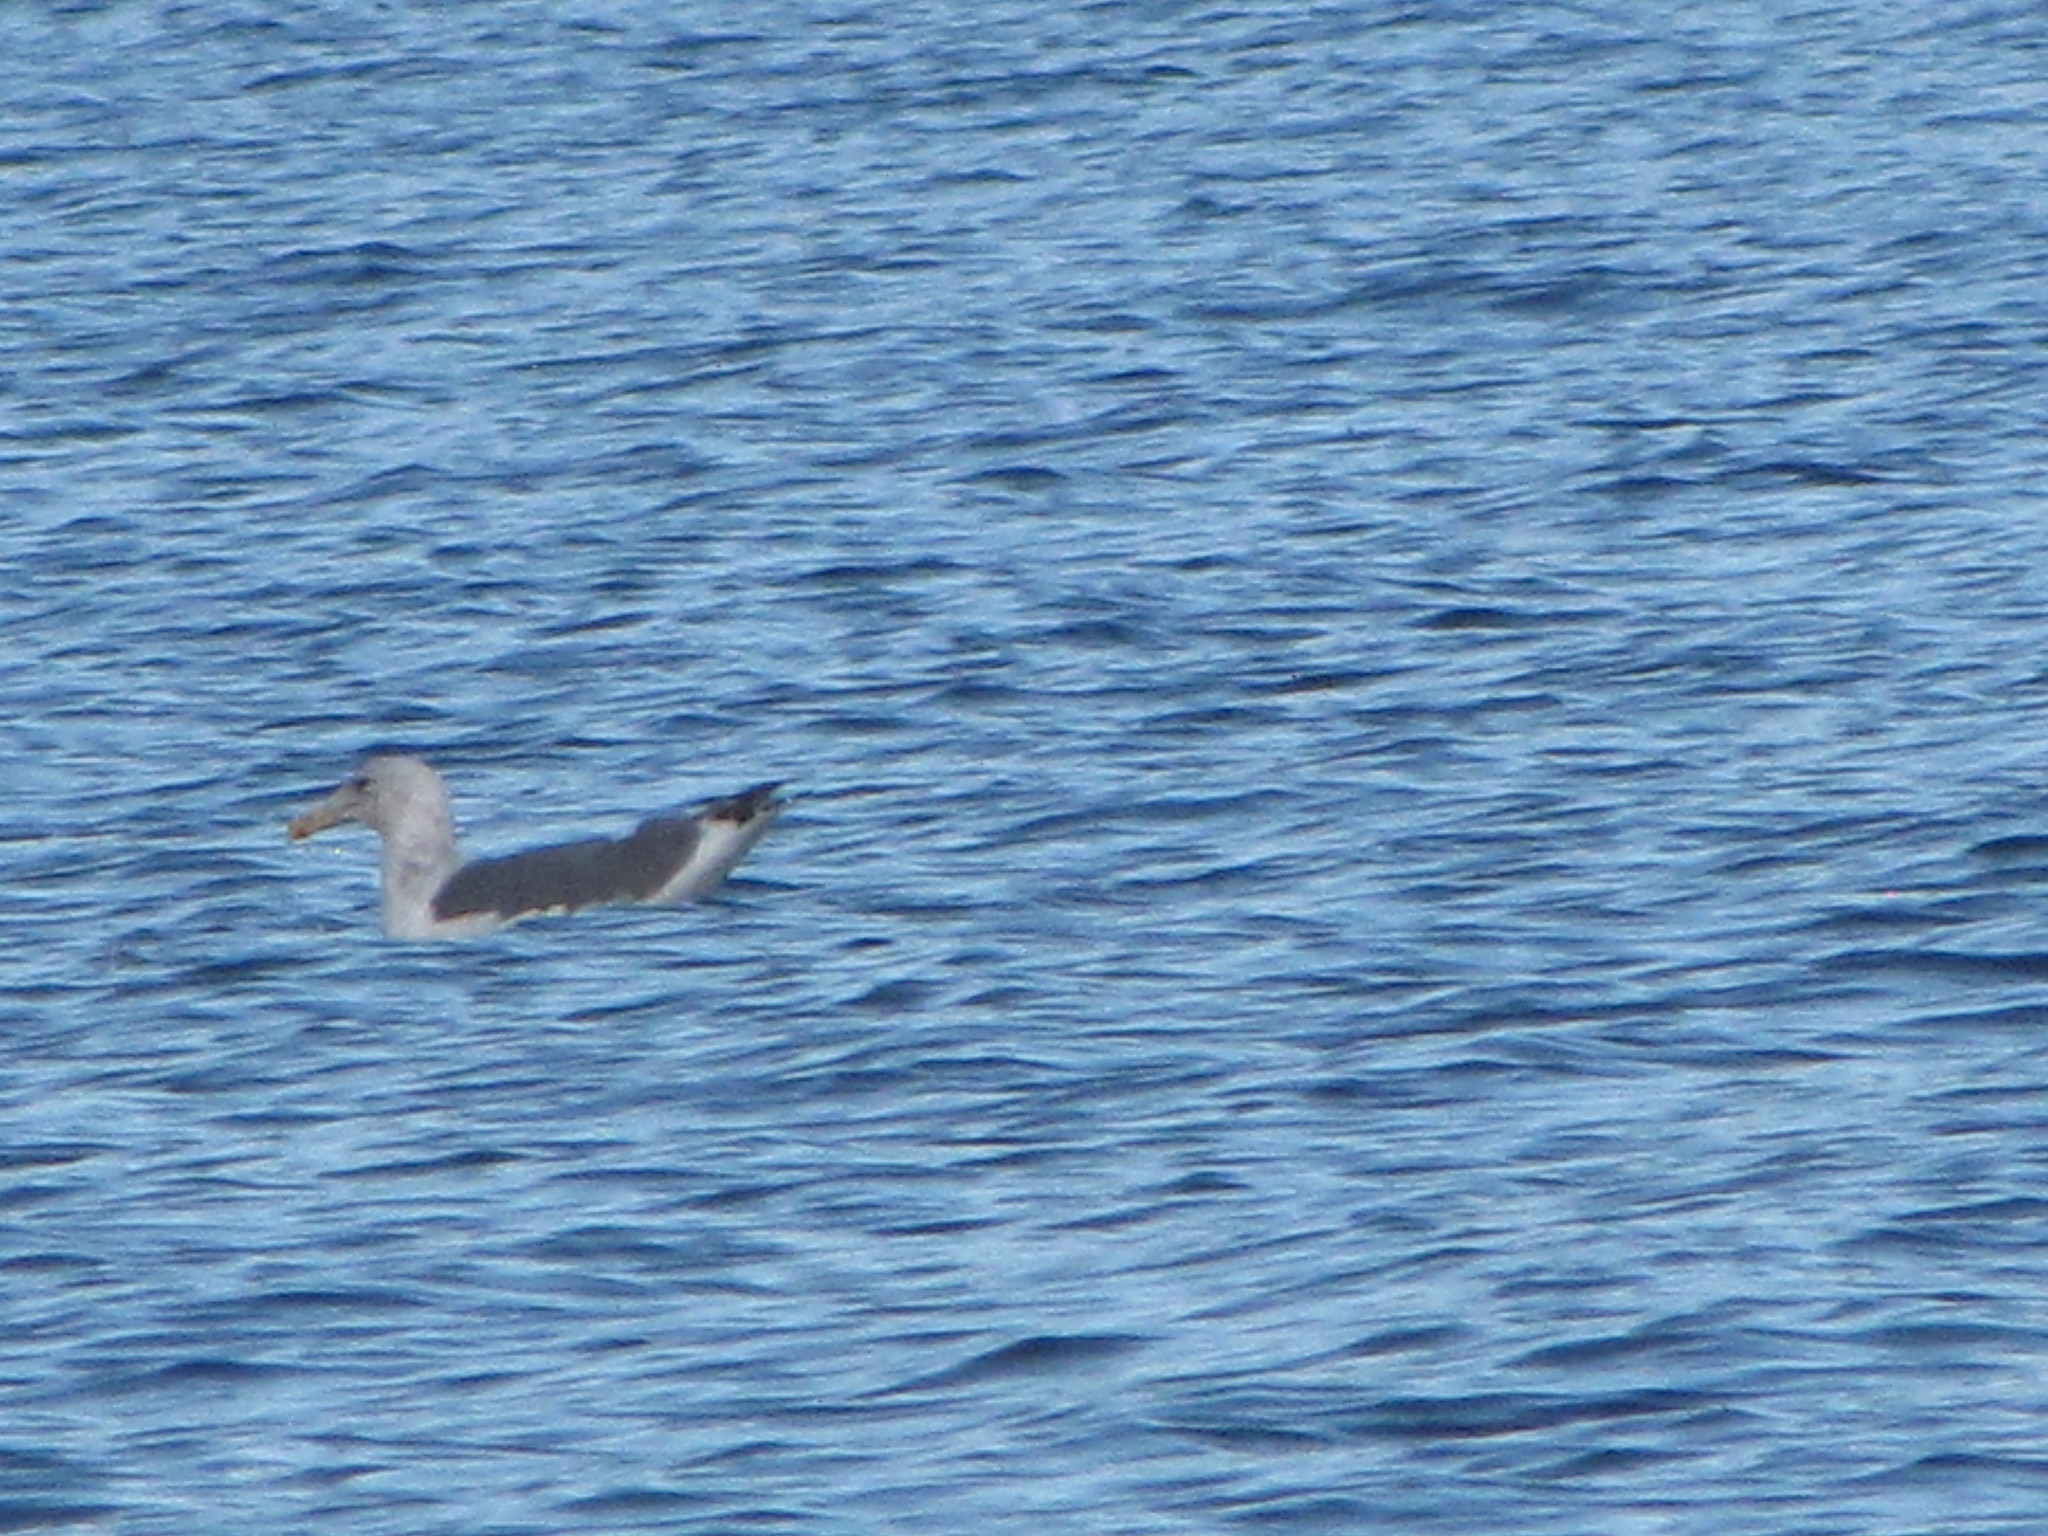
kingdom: Animalia
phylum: Chordata
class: Aves
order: Charadriiformes
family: Laridae
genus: Larus
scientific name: Larus
